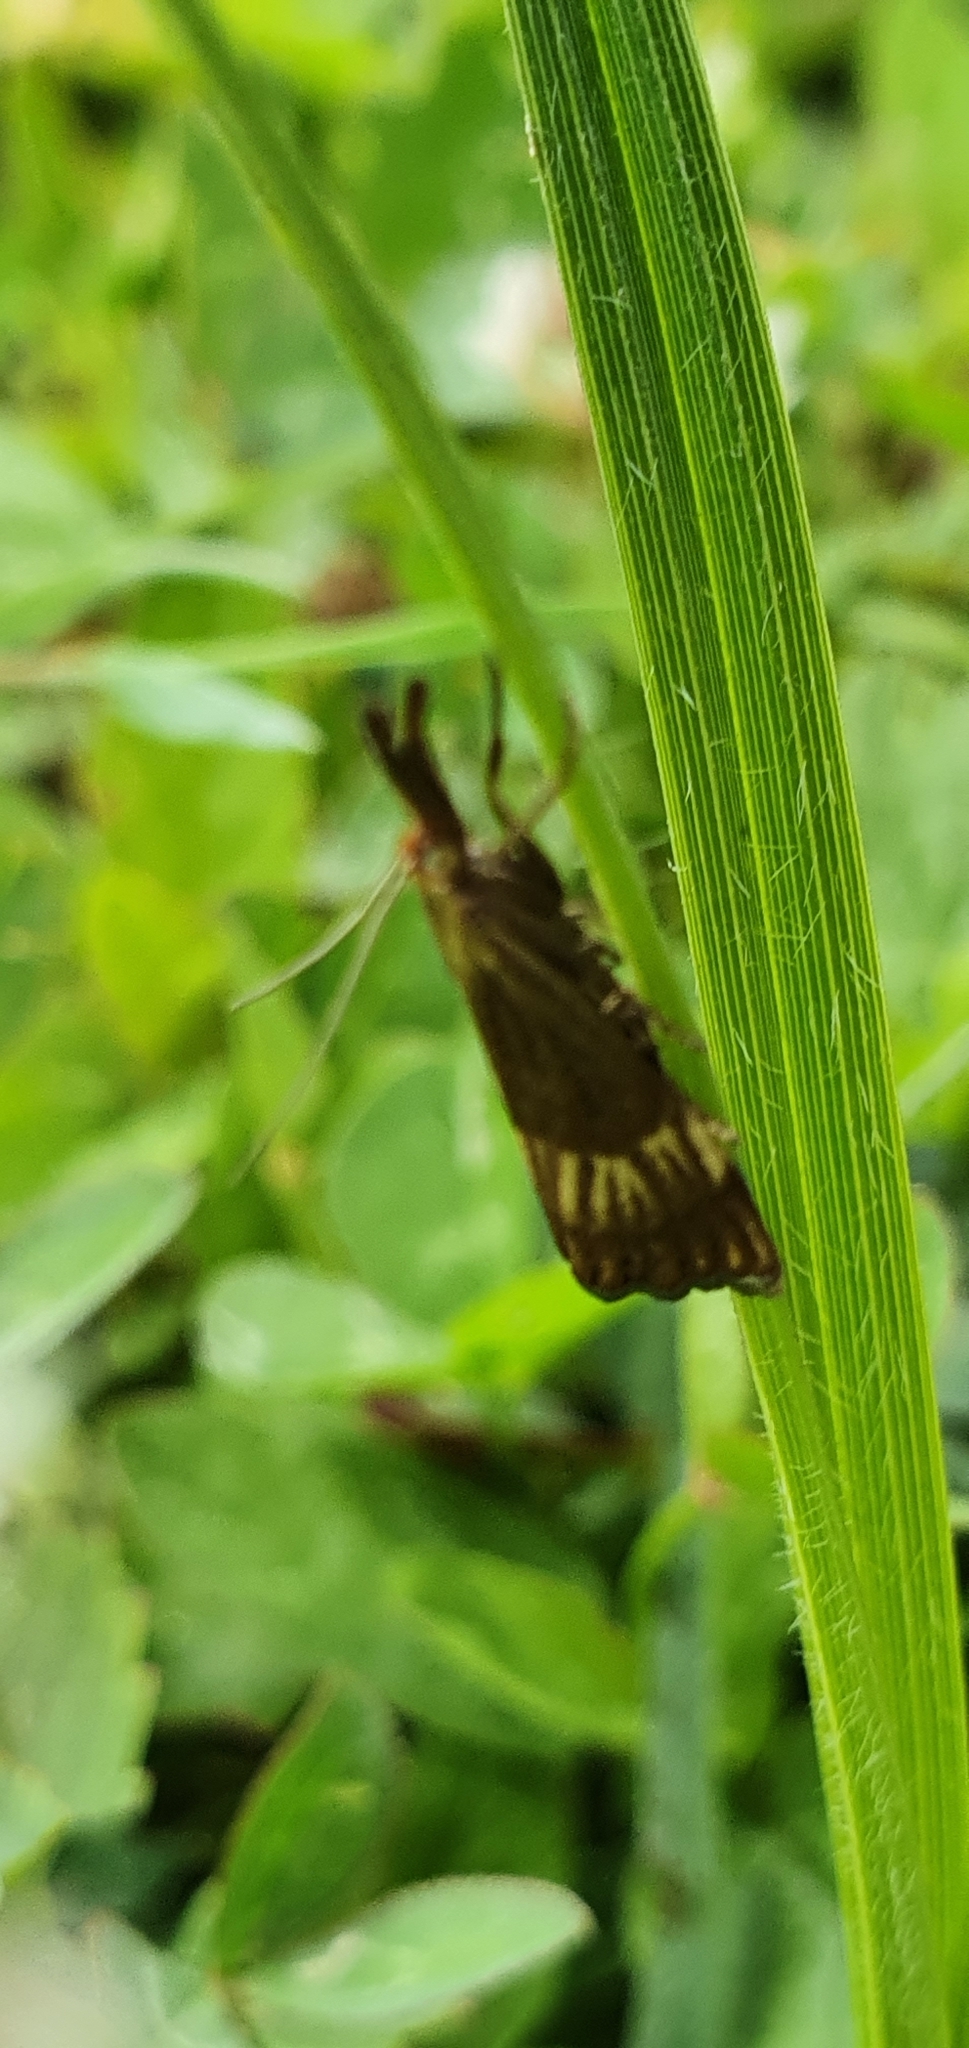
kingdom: Animalia
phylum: Arthropoda
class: Insecta
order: Lepidoptera
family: Crambidae
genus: Chrysocrambus
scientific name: Chrysocrambus linetella
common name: Orange-bar grass-veneer
